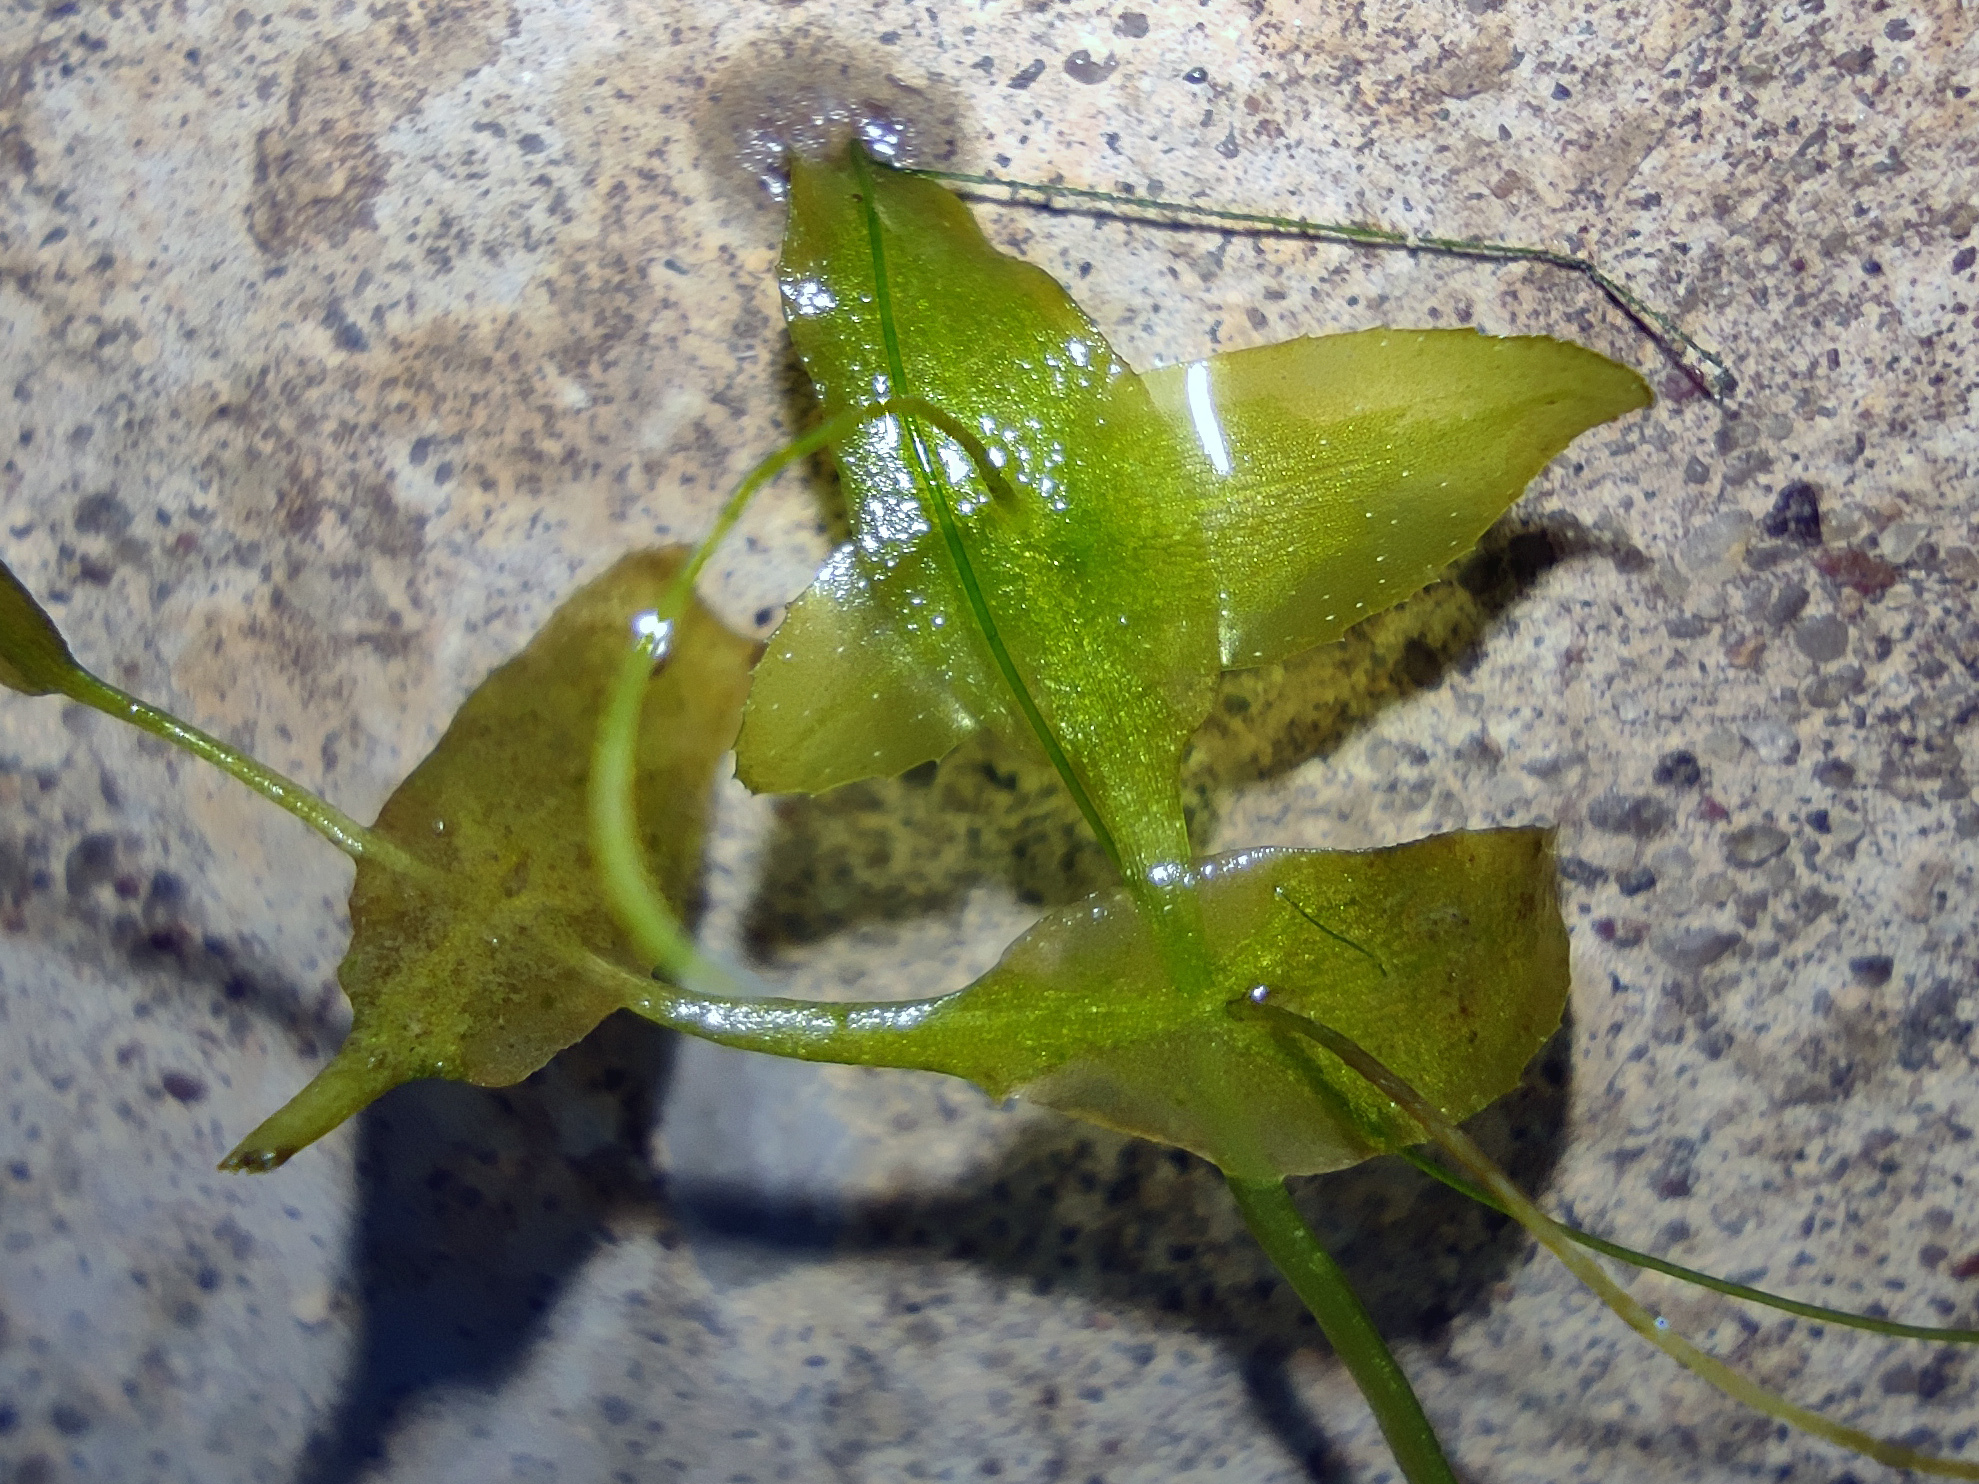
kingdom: Plantae
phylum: Tracheophyta
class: Liliopsida
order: Alismatales
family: Araceae
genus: Lemna
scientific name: Lemna trisulca
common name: Ivy-leaved duckweed
